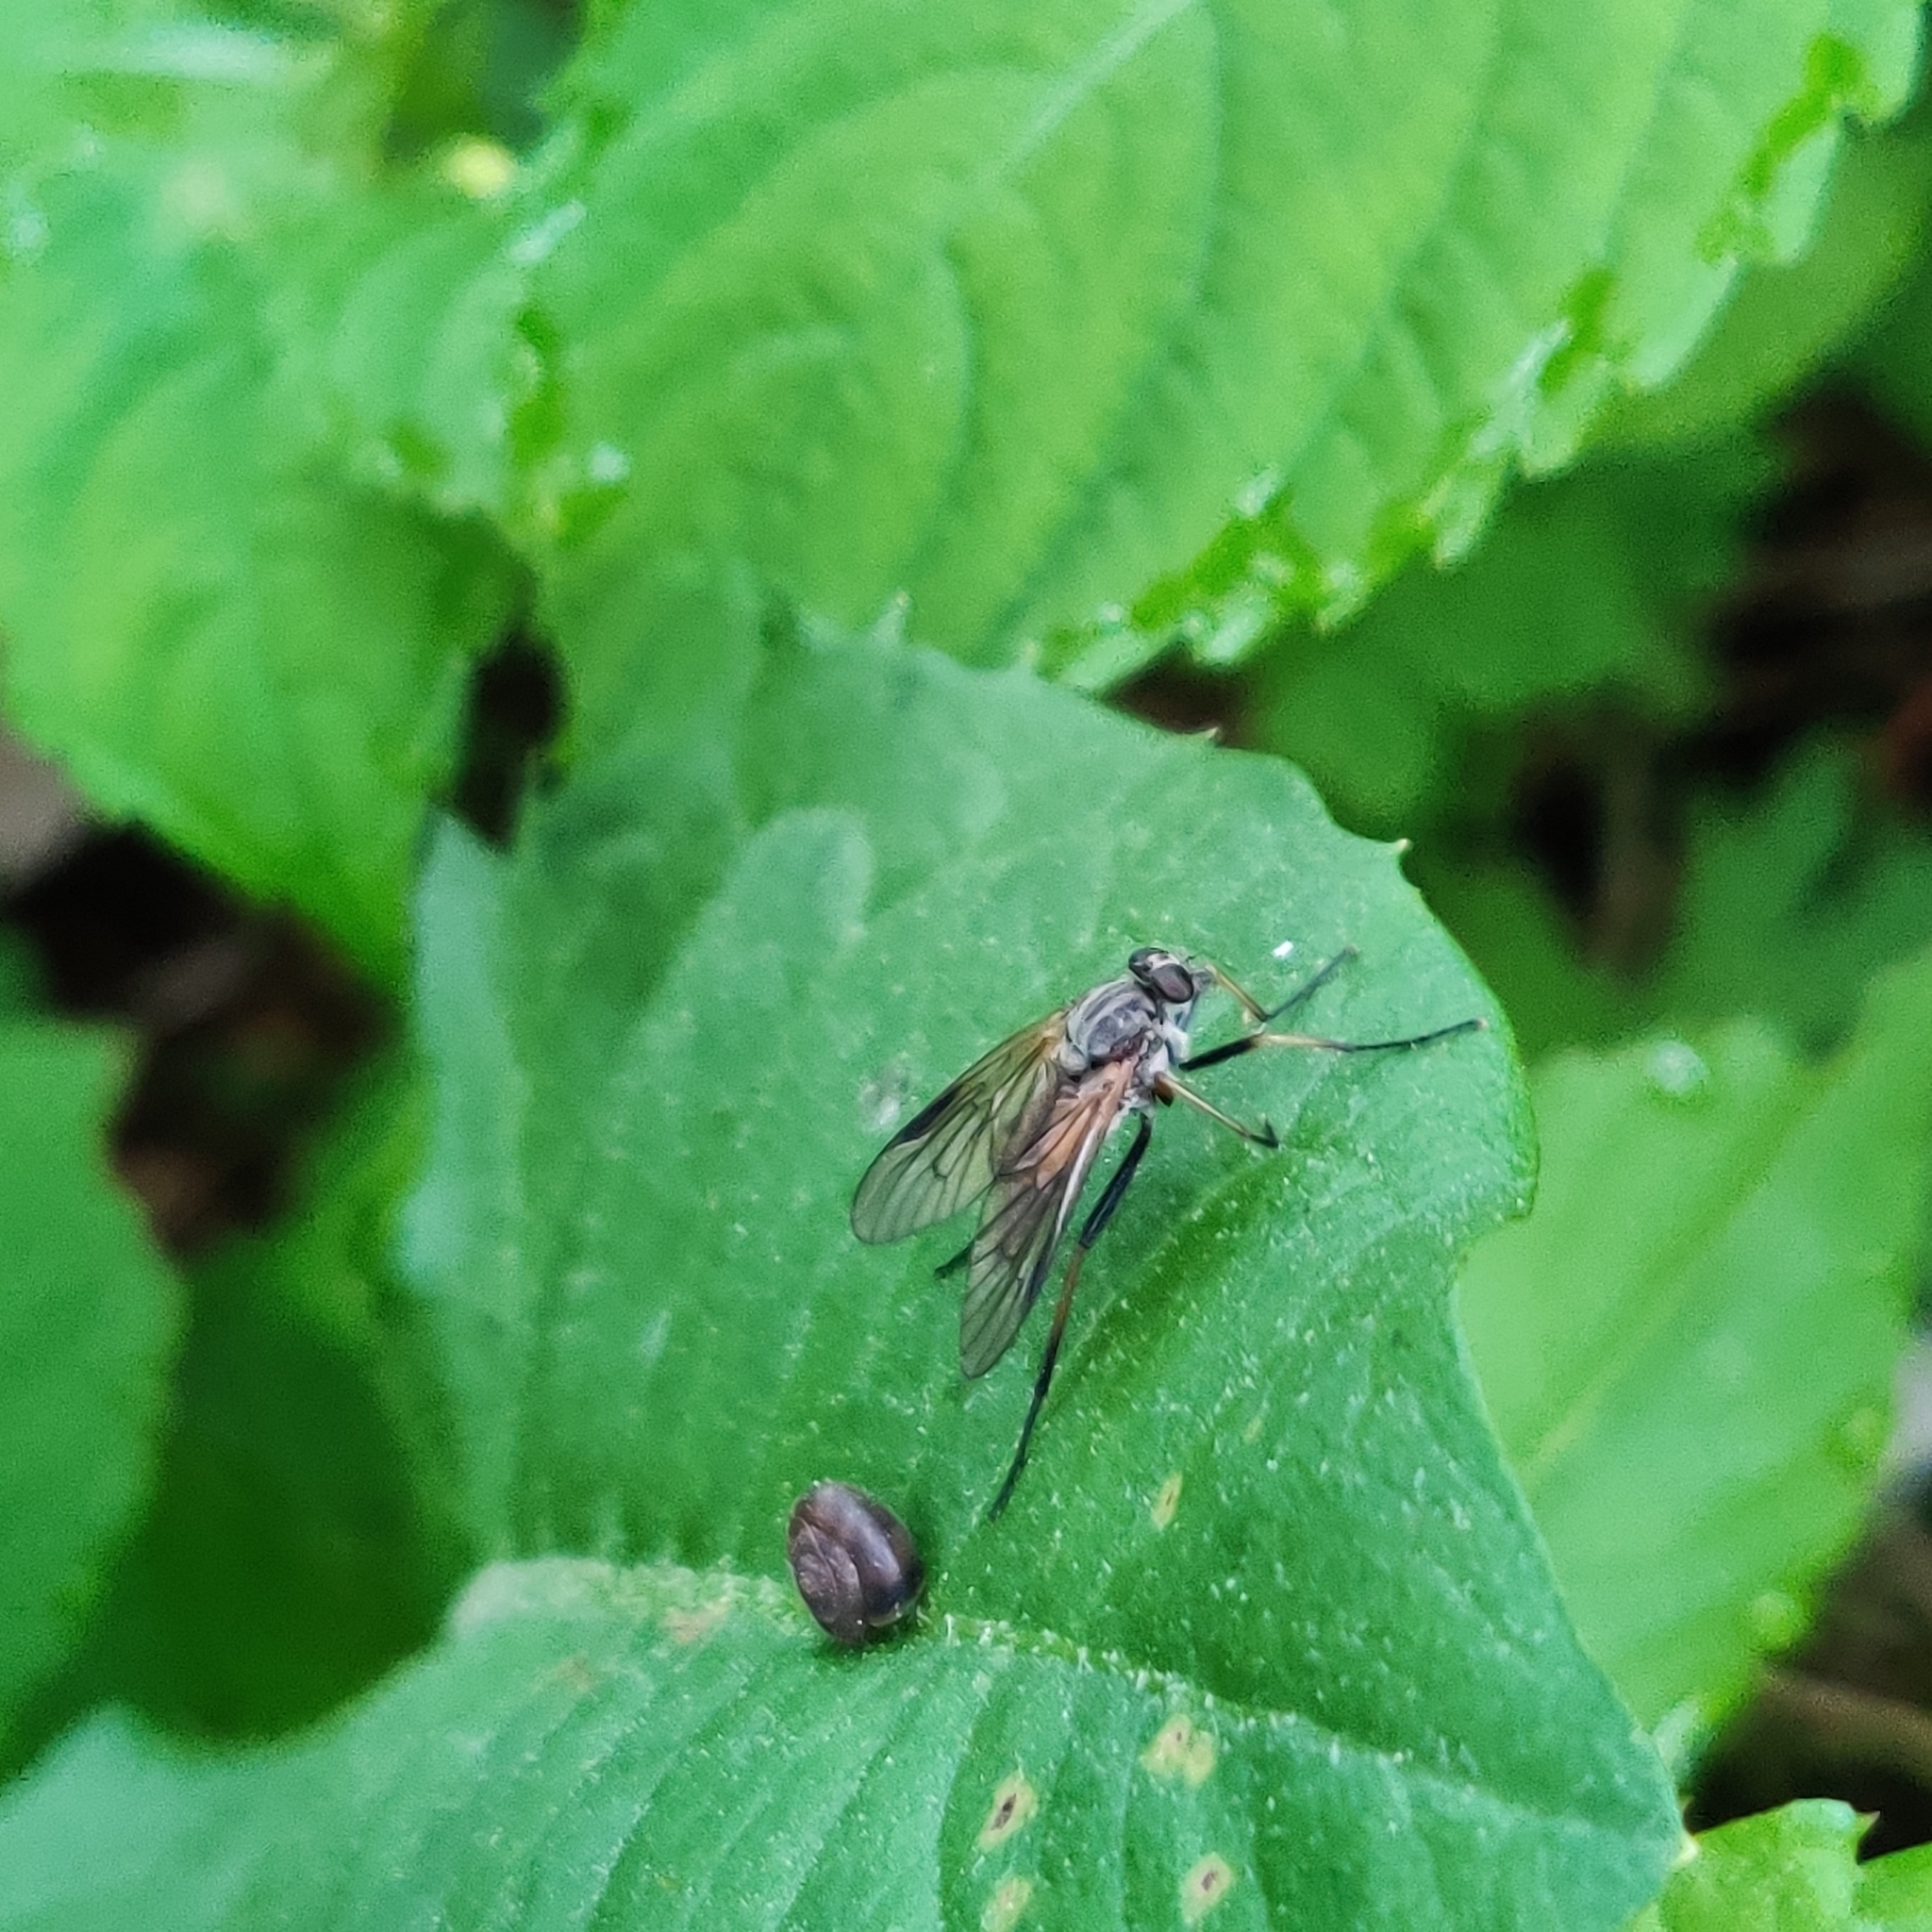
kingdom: Animalia
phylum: Arthropoda
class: Insecta
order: Diptera
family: Rhagionidae
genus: Rhagio
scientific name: Rhagio notatus
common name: Large fleck-winged snipefly
